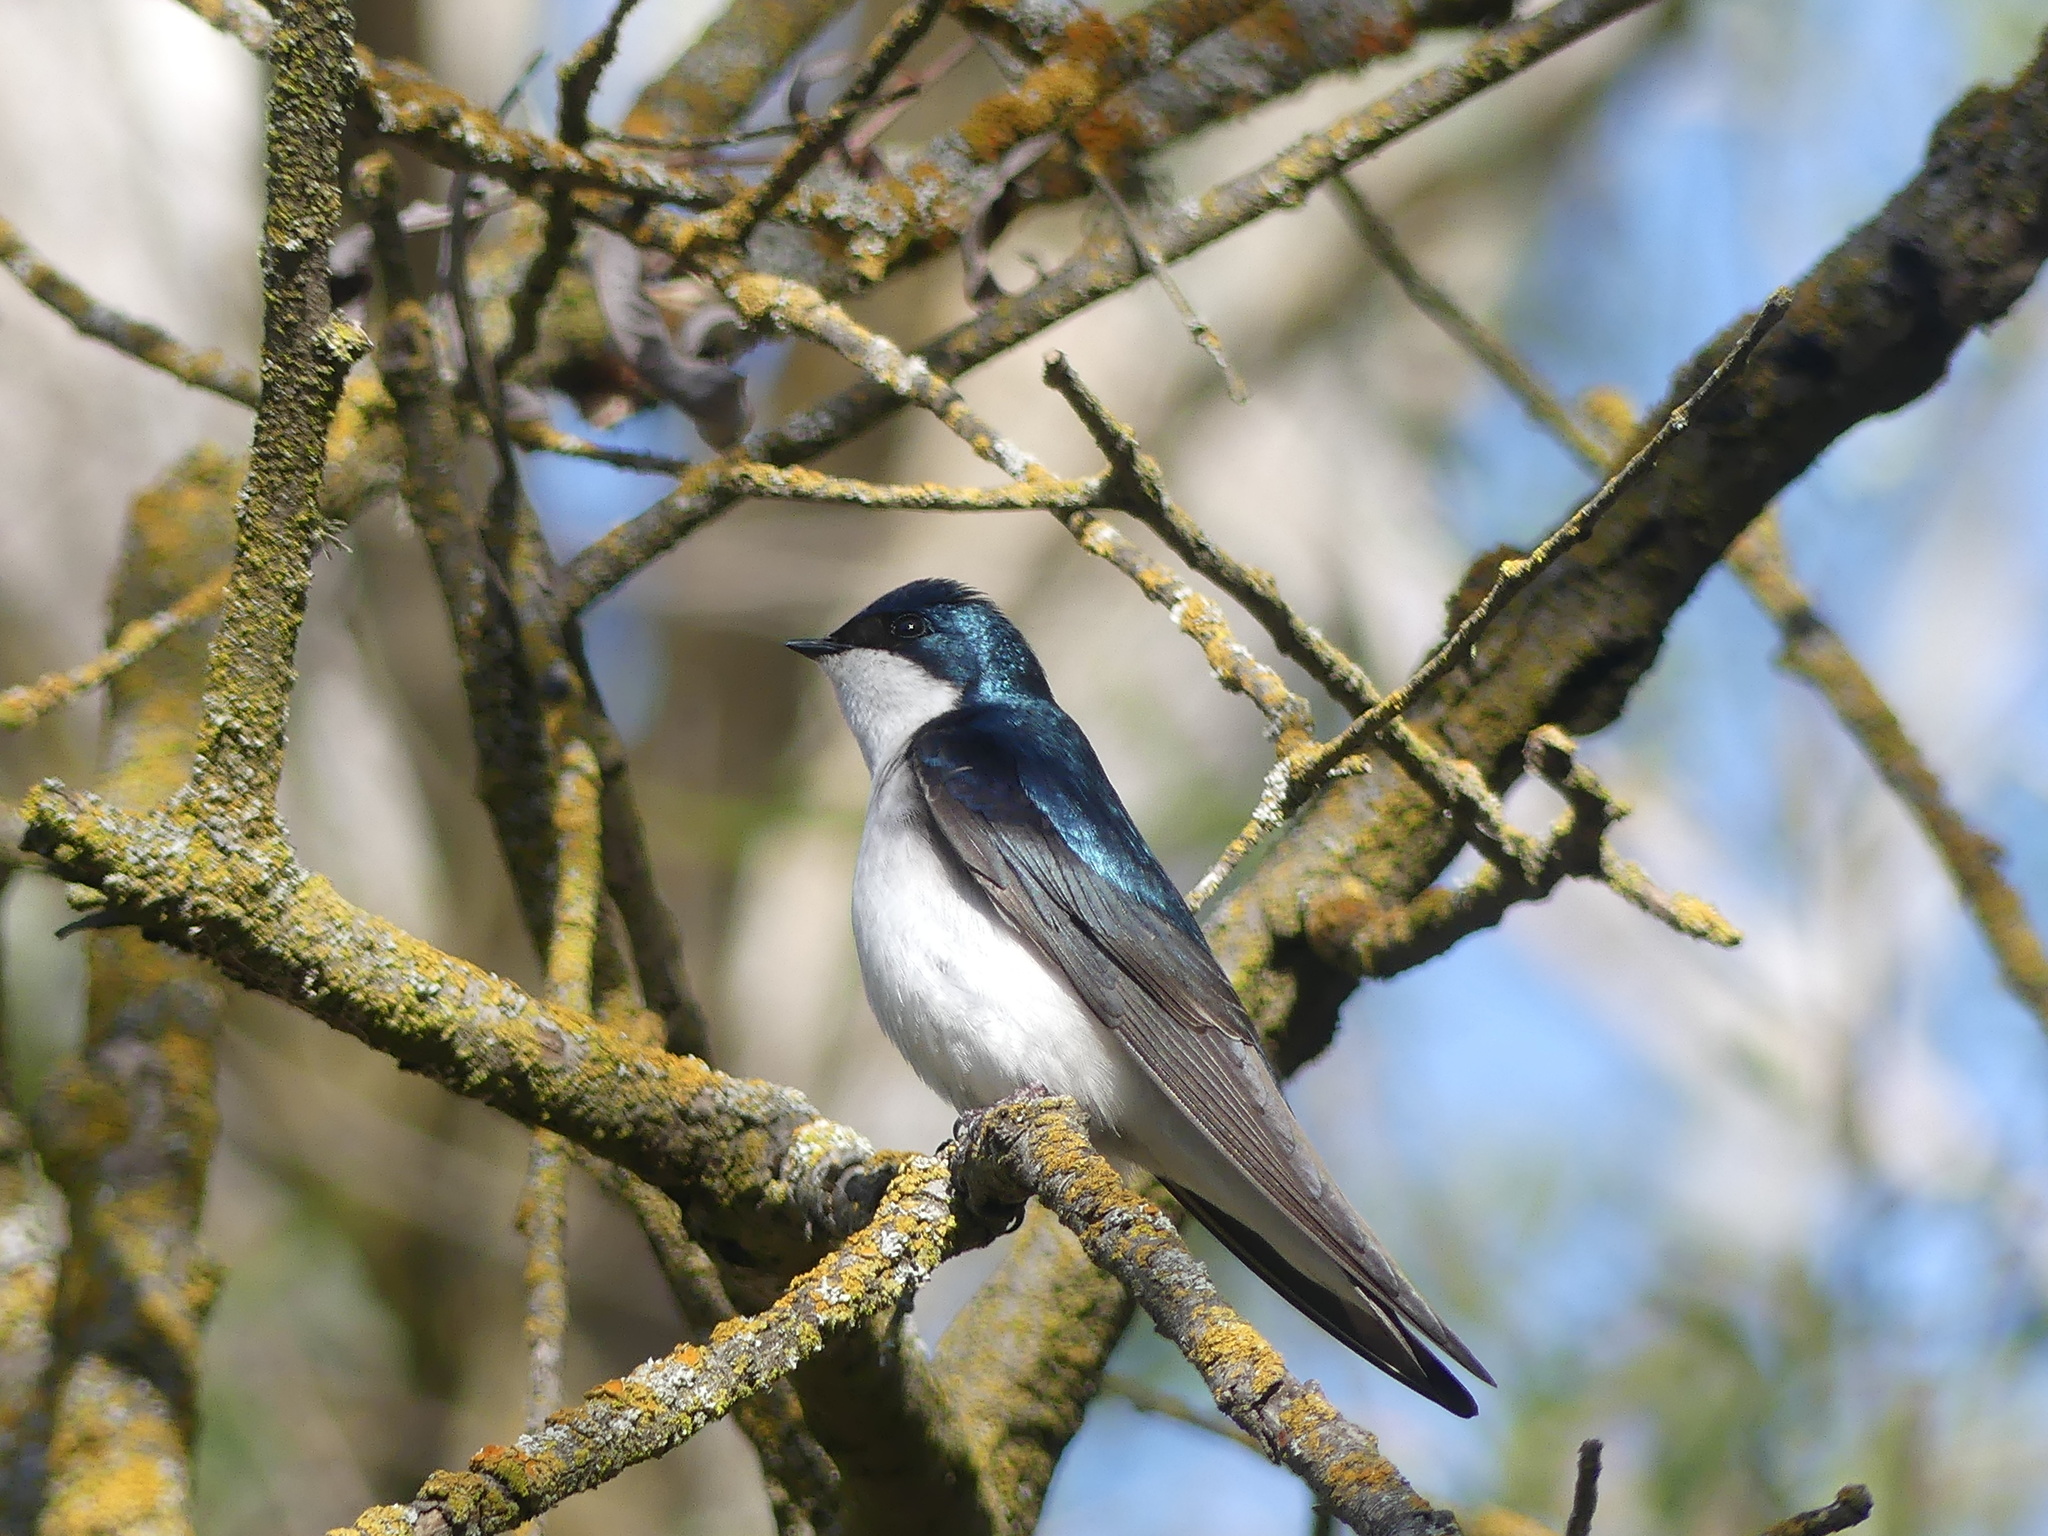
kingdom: Animalia
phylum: Chordata
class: Aves
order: Passeriformes
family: Hirundinidae
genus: Tachycineta
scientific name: Tachycineta bicolor
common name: Tree swallow
